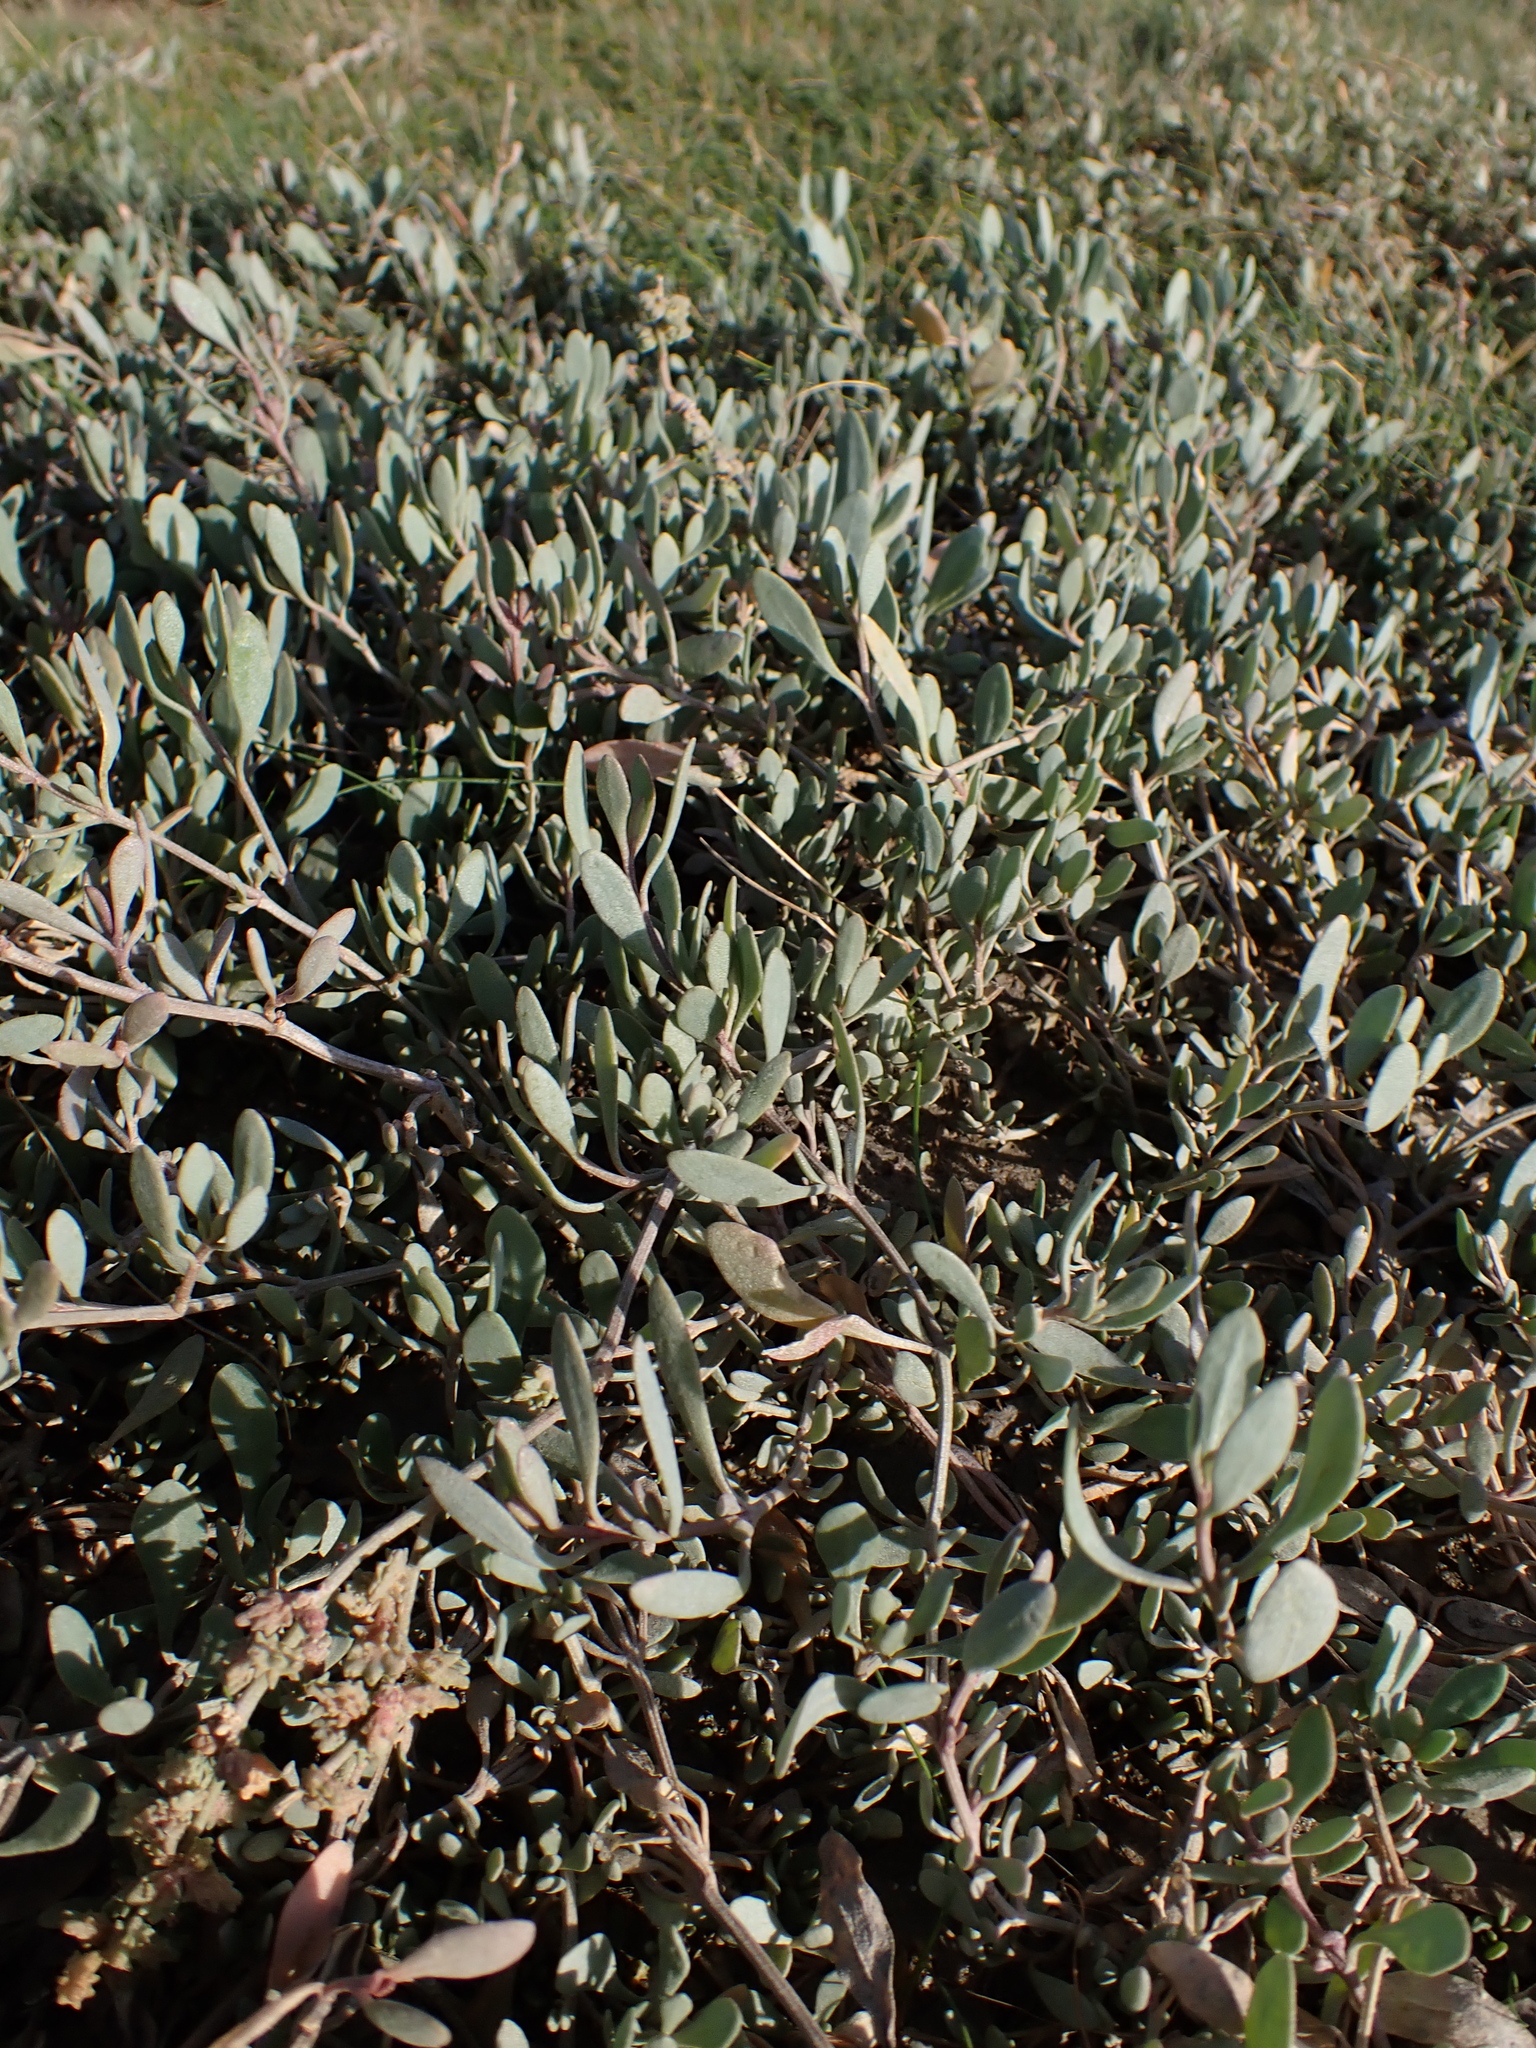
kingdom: Plantae
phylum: Tracheophyta
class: Magnoliopsida
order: Caryophyllales
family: Amaranthaceae
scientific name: Amaranthaceae
